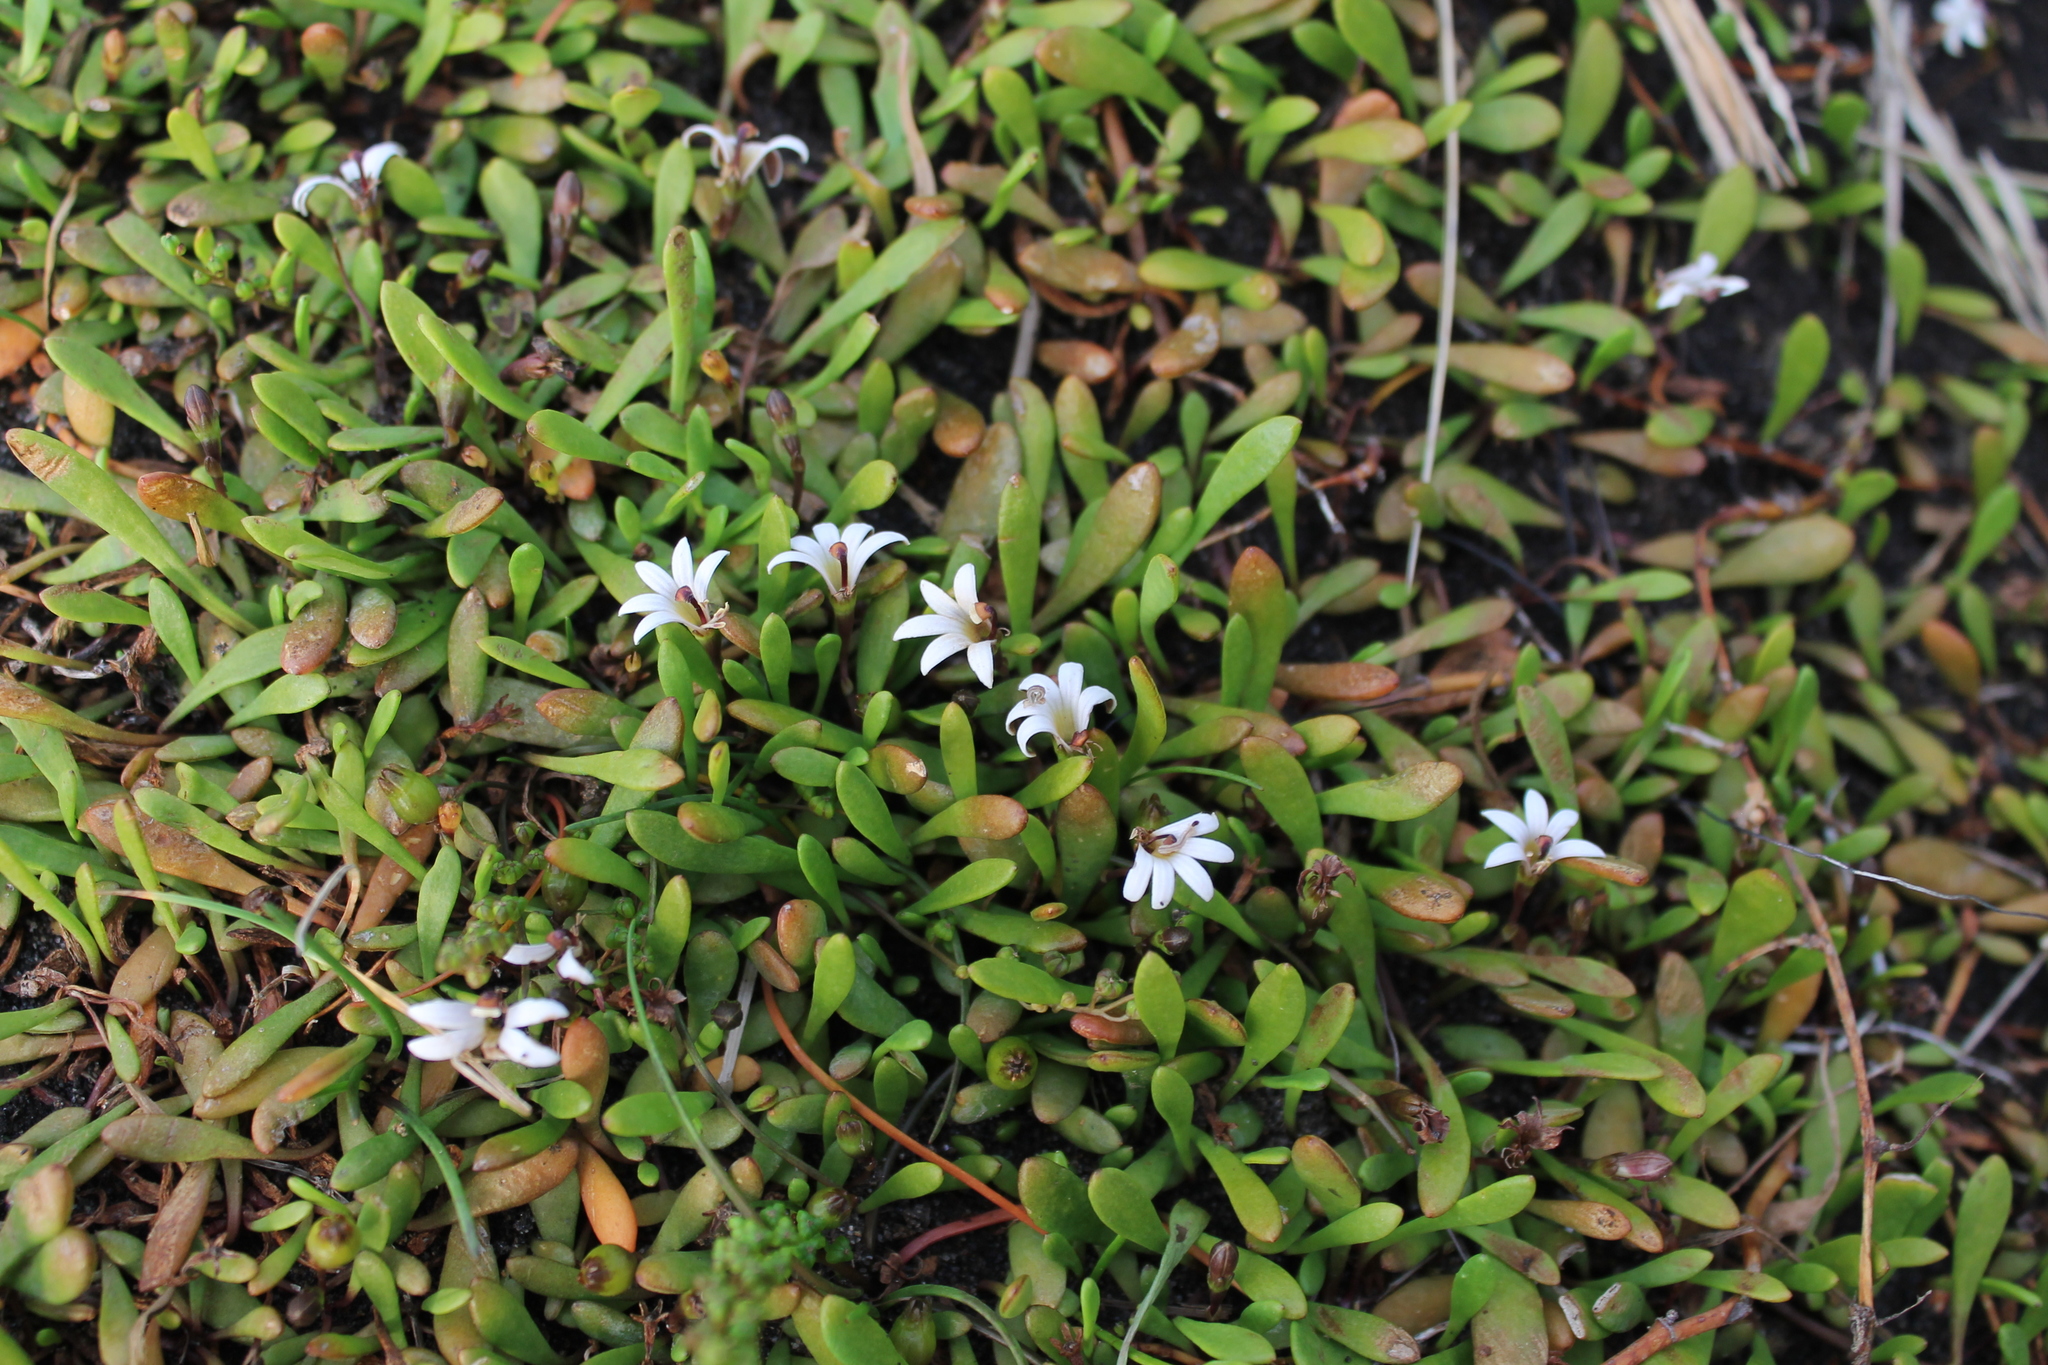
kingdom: Plantae
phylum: Tracheophyta
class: Magnoliopsida
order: Asterales
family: Goodeniaceae
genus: Goodenia
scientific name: Goodenia radicans
